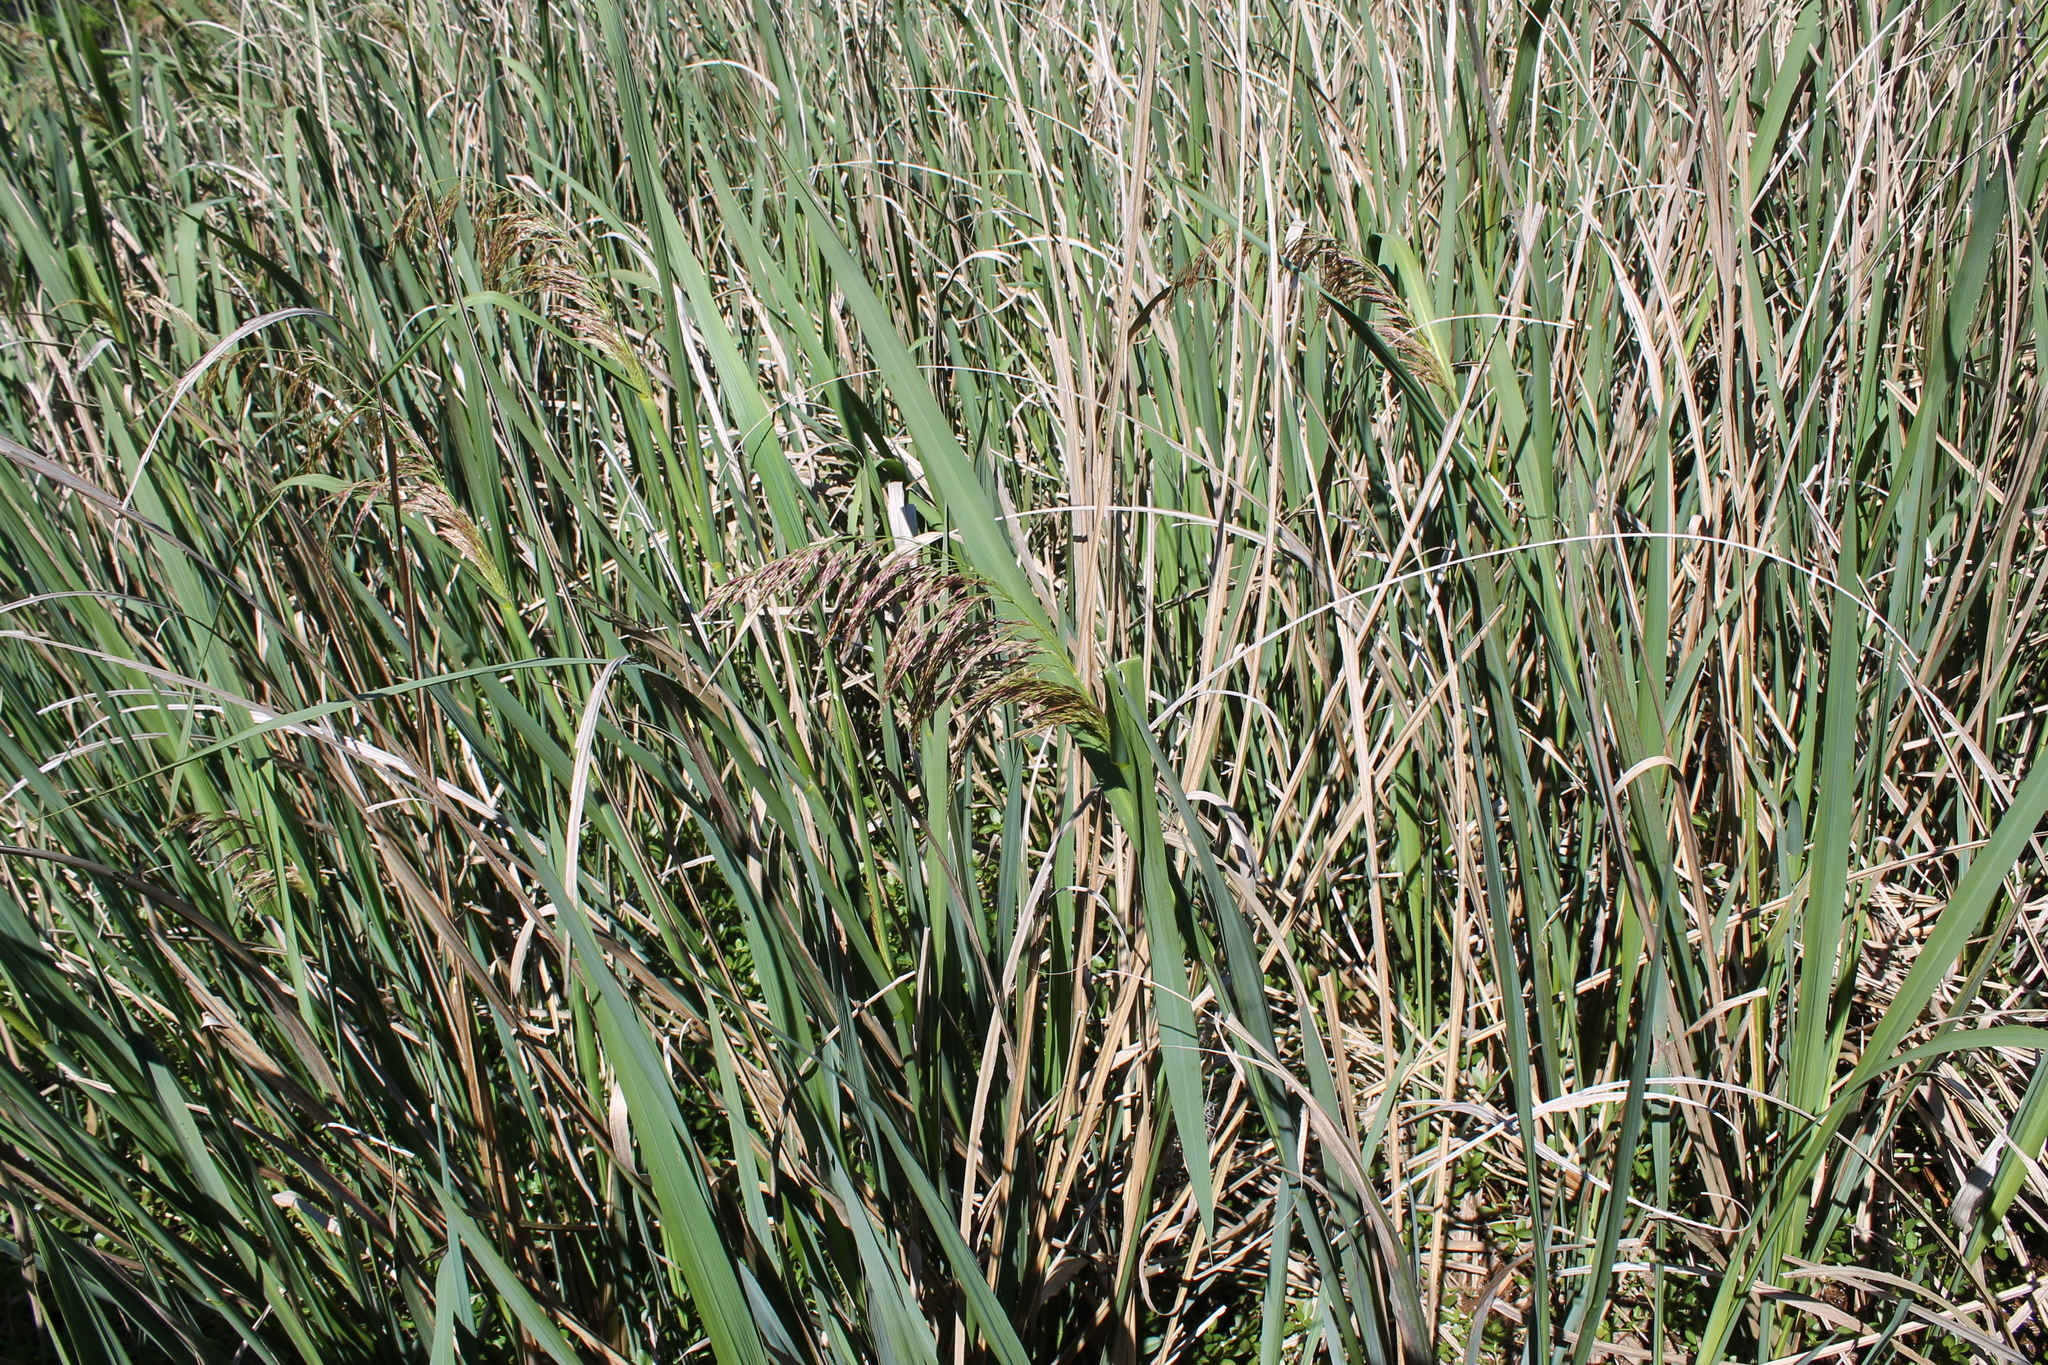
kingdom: Plantae
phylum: Tracheophyta
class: Liliopsida
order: Poales
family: Poaceae
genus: Zizaniopsis
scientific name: Zizaniopsis miliacea
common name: Giant-cutgrass
